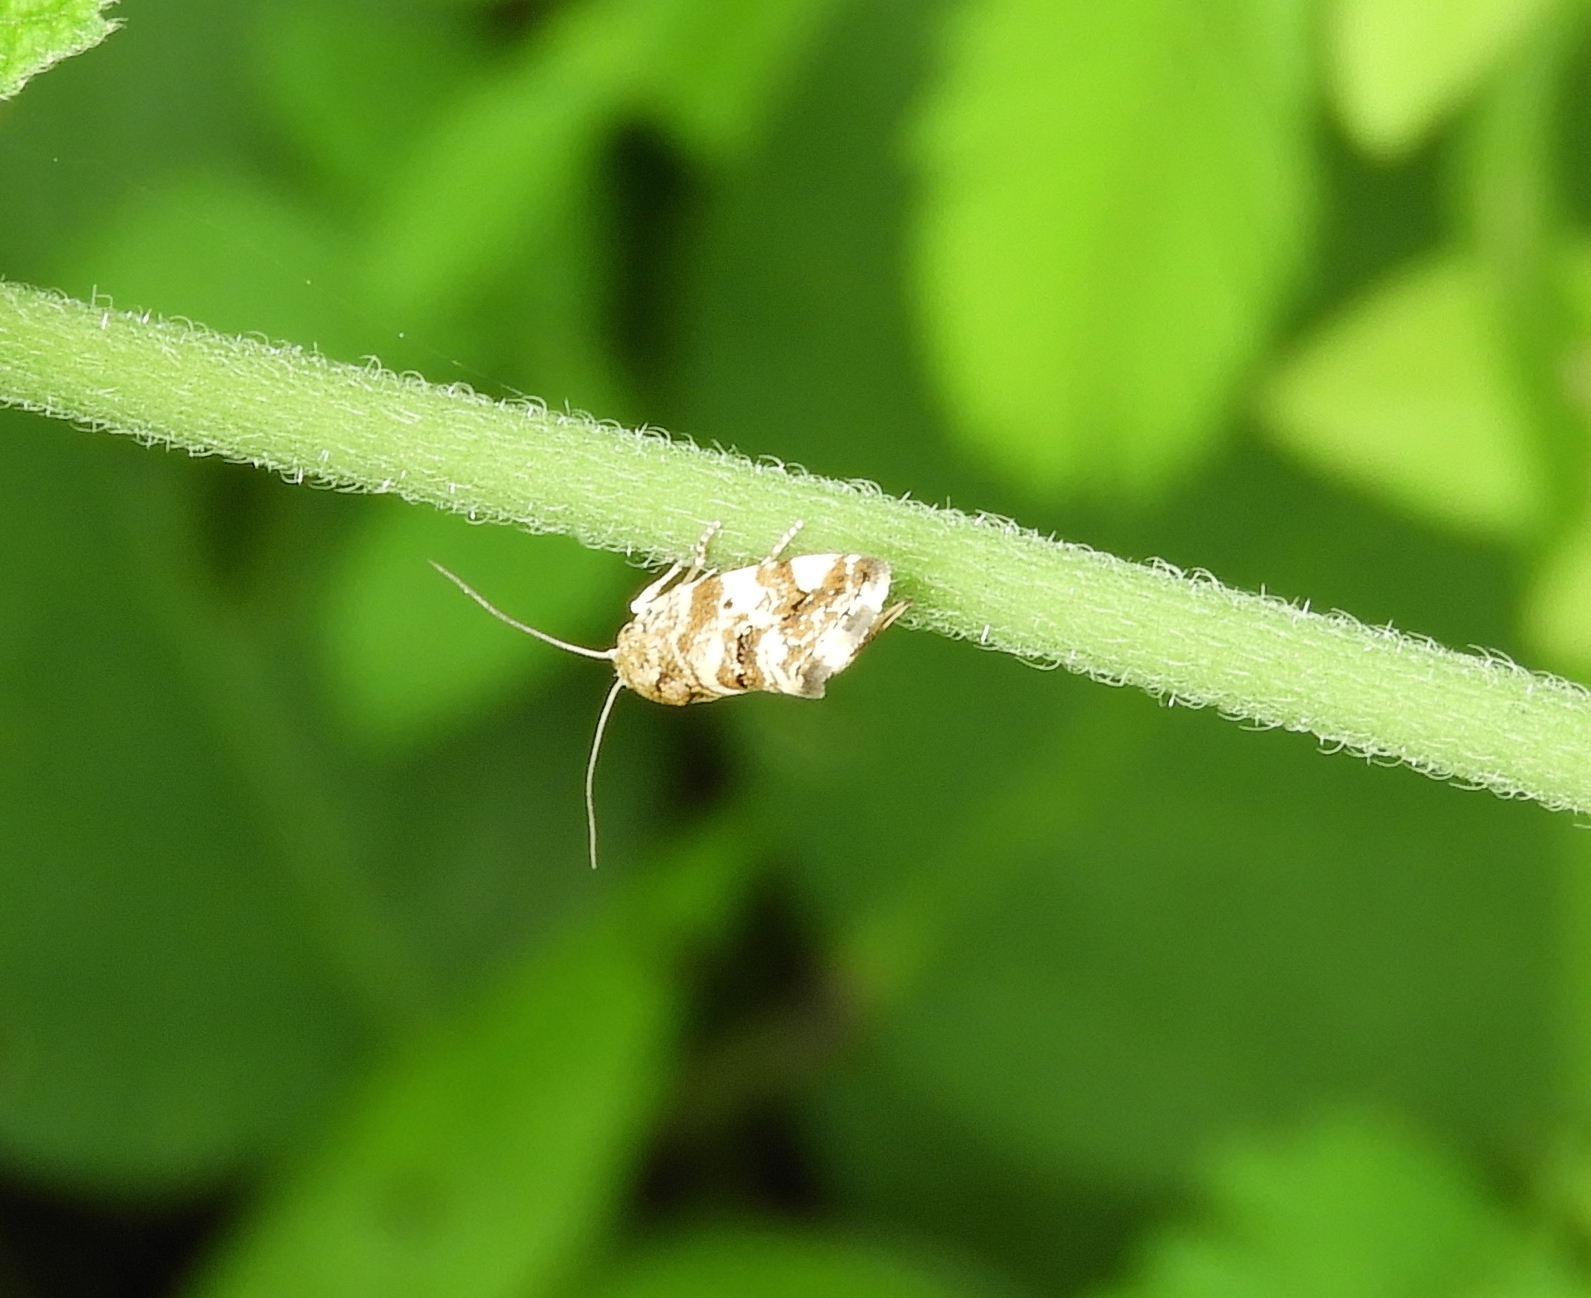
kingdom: Animalia
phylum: Arthropoda
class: Insecta
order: Lepidoptera
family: Noctuidae
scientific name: Noctuidae
